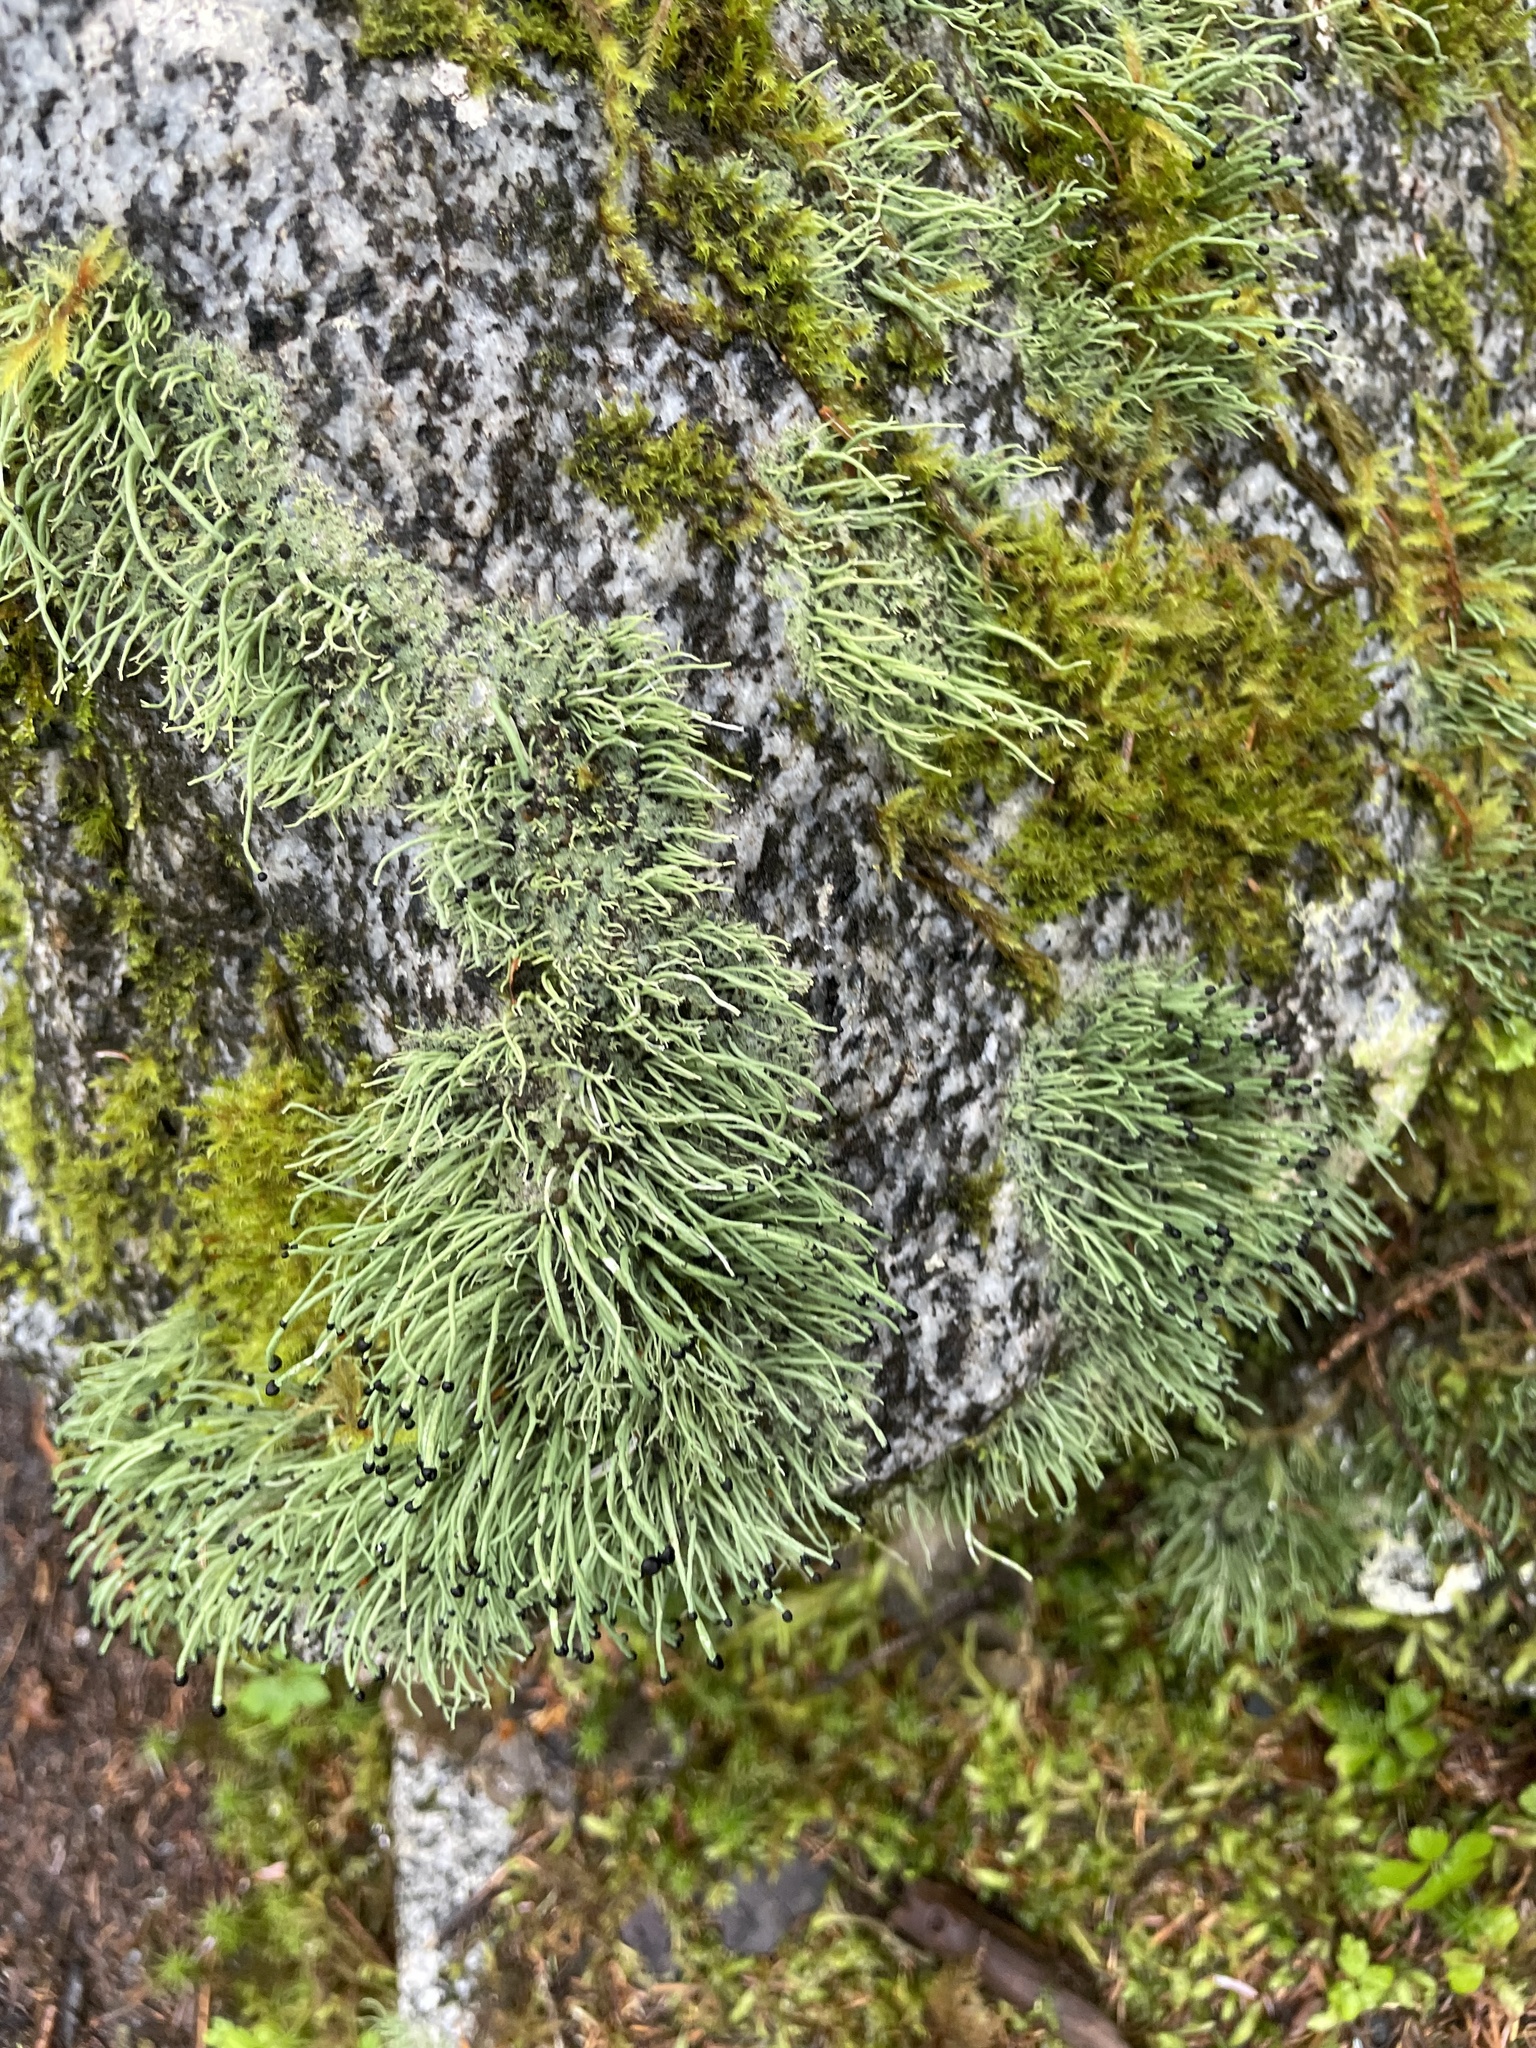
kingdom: Fungi
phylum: Ascomycota
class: Lecanoromycetes
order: Lecanorales
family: Cladoniaceae
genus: Pilophorus
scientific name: Pilophorus acicularis
